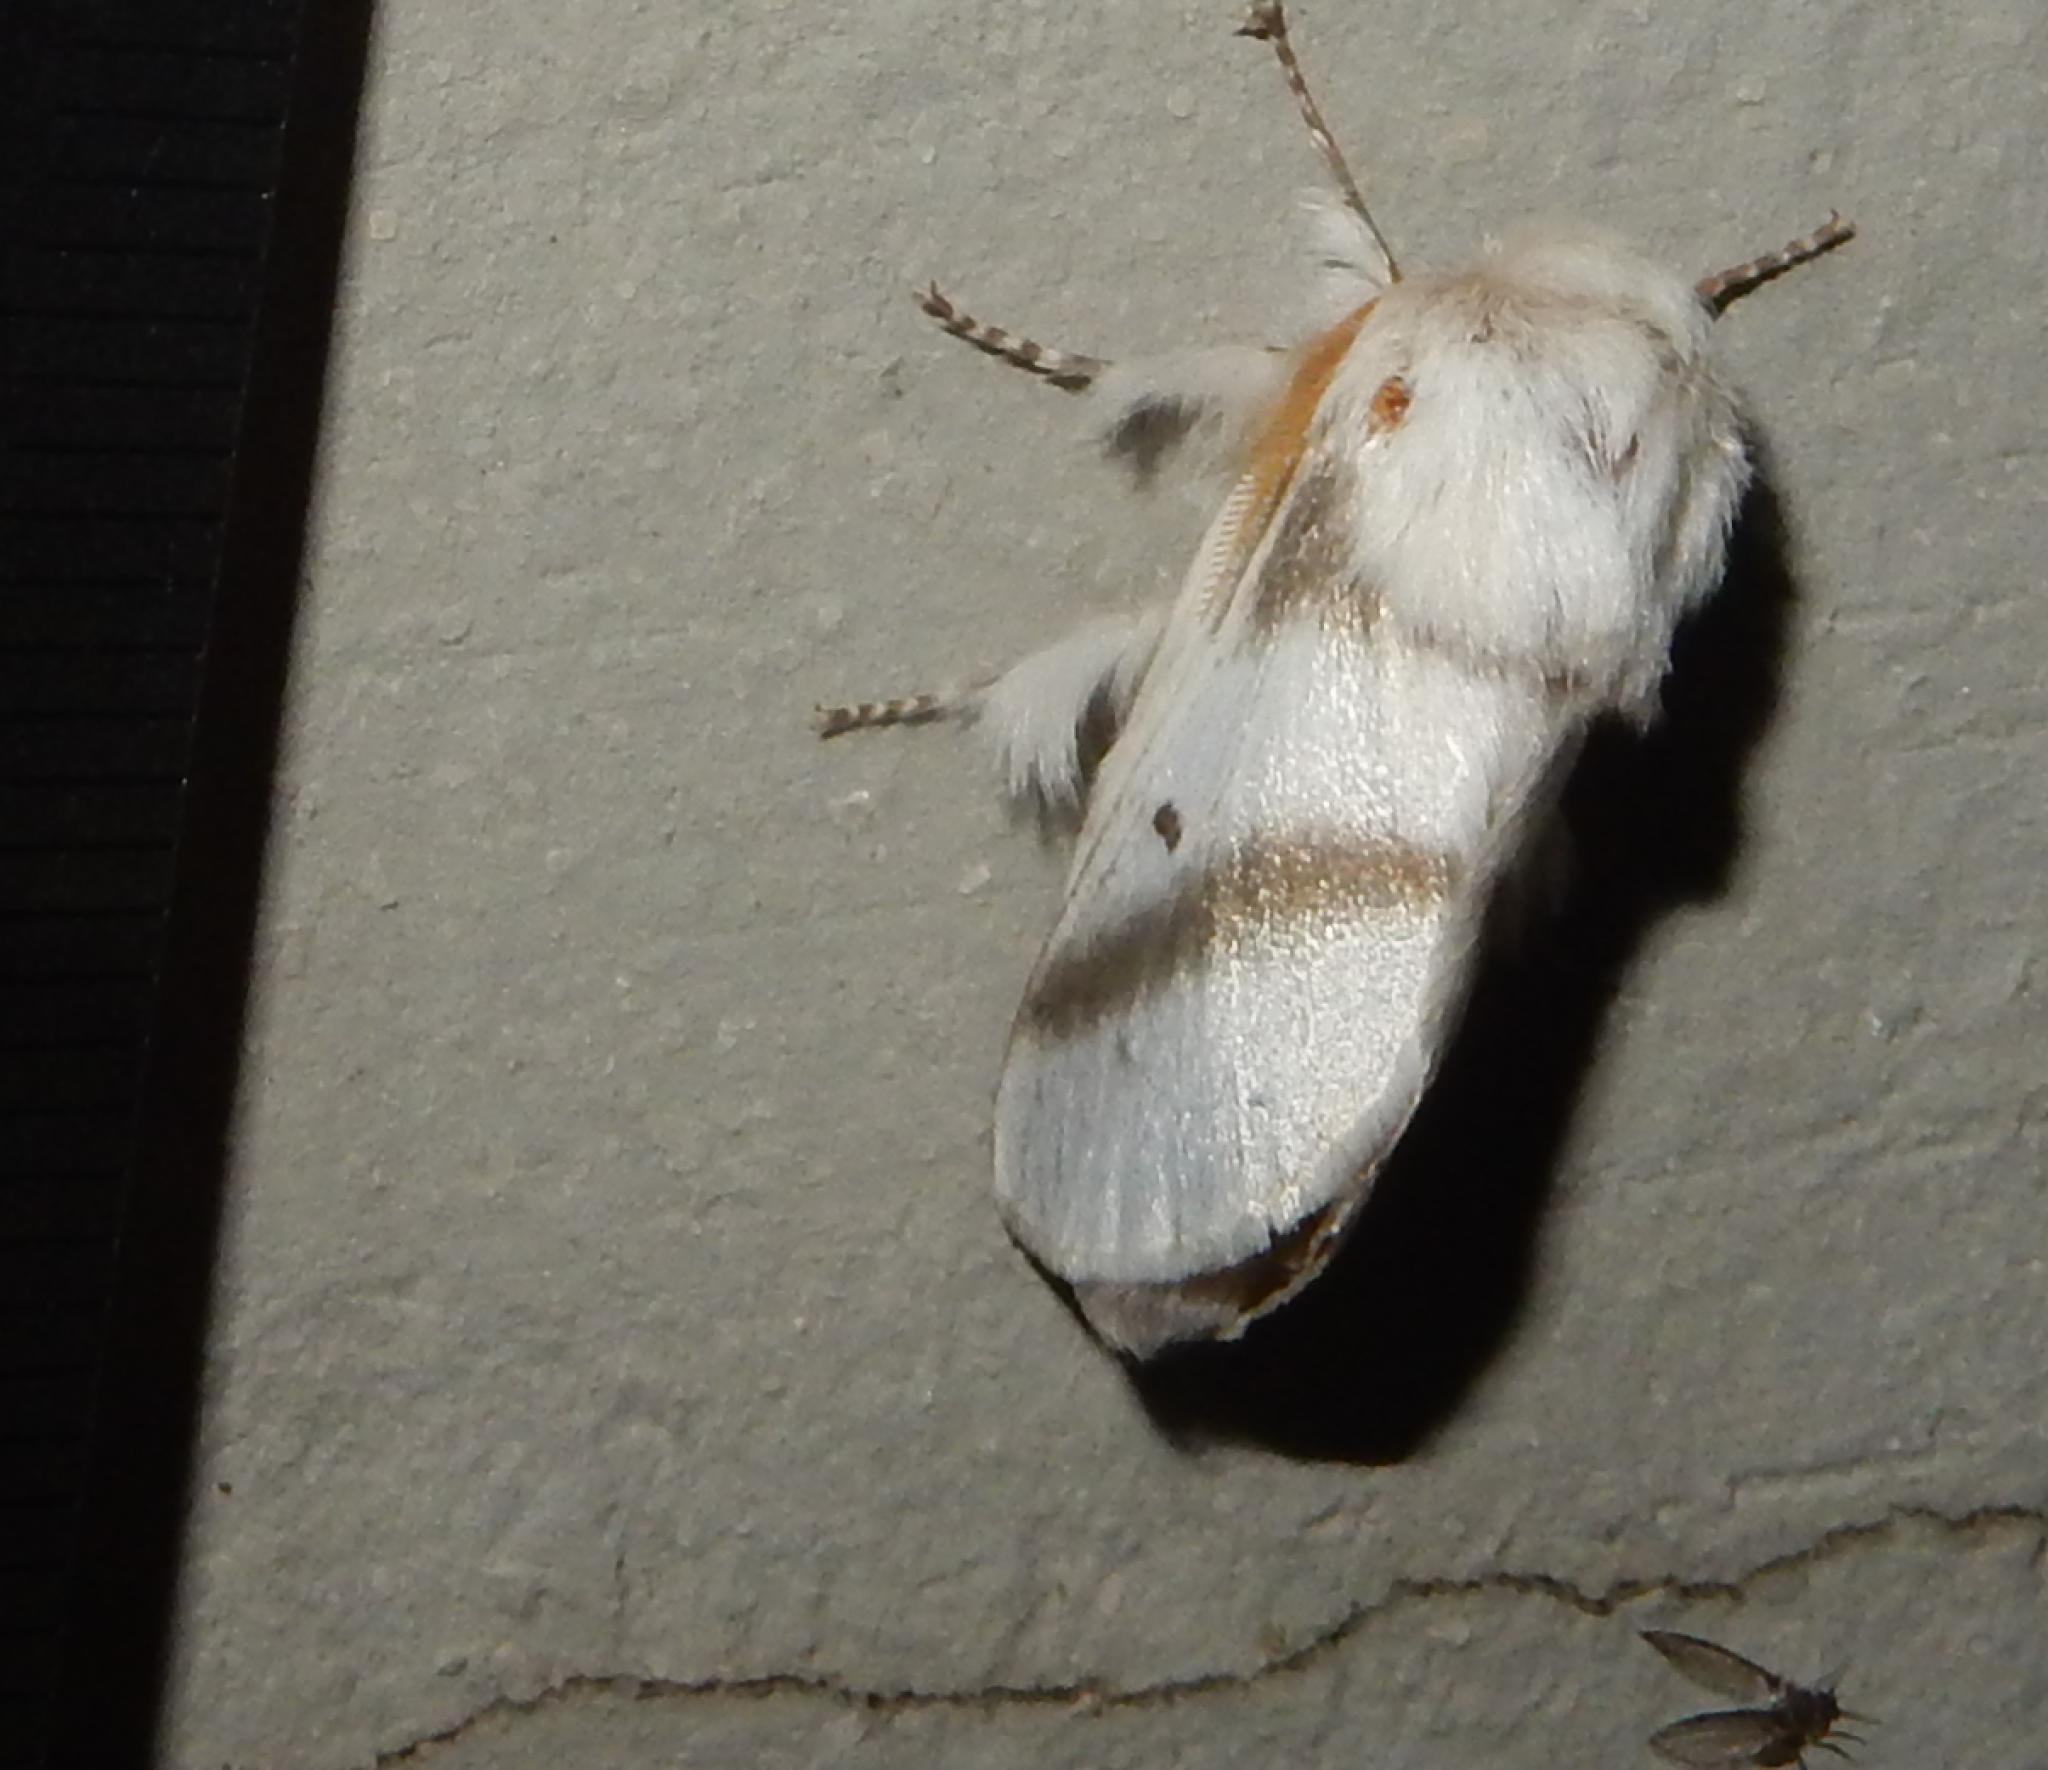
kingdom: Animalia
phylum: Arthropoda
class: Insecta
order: Lepidoptera
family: Lasiocampidae
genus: Bombycomorpha
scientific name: Bombycomorpha bifascia
